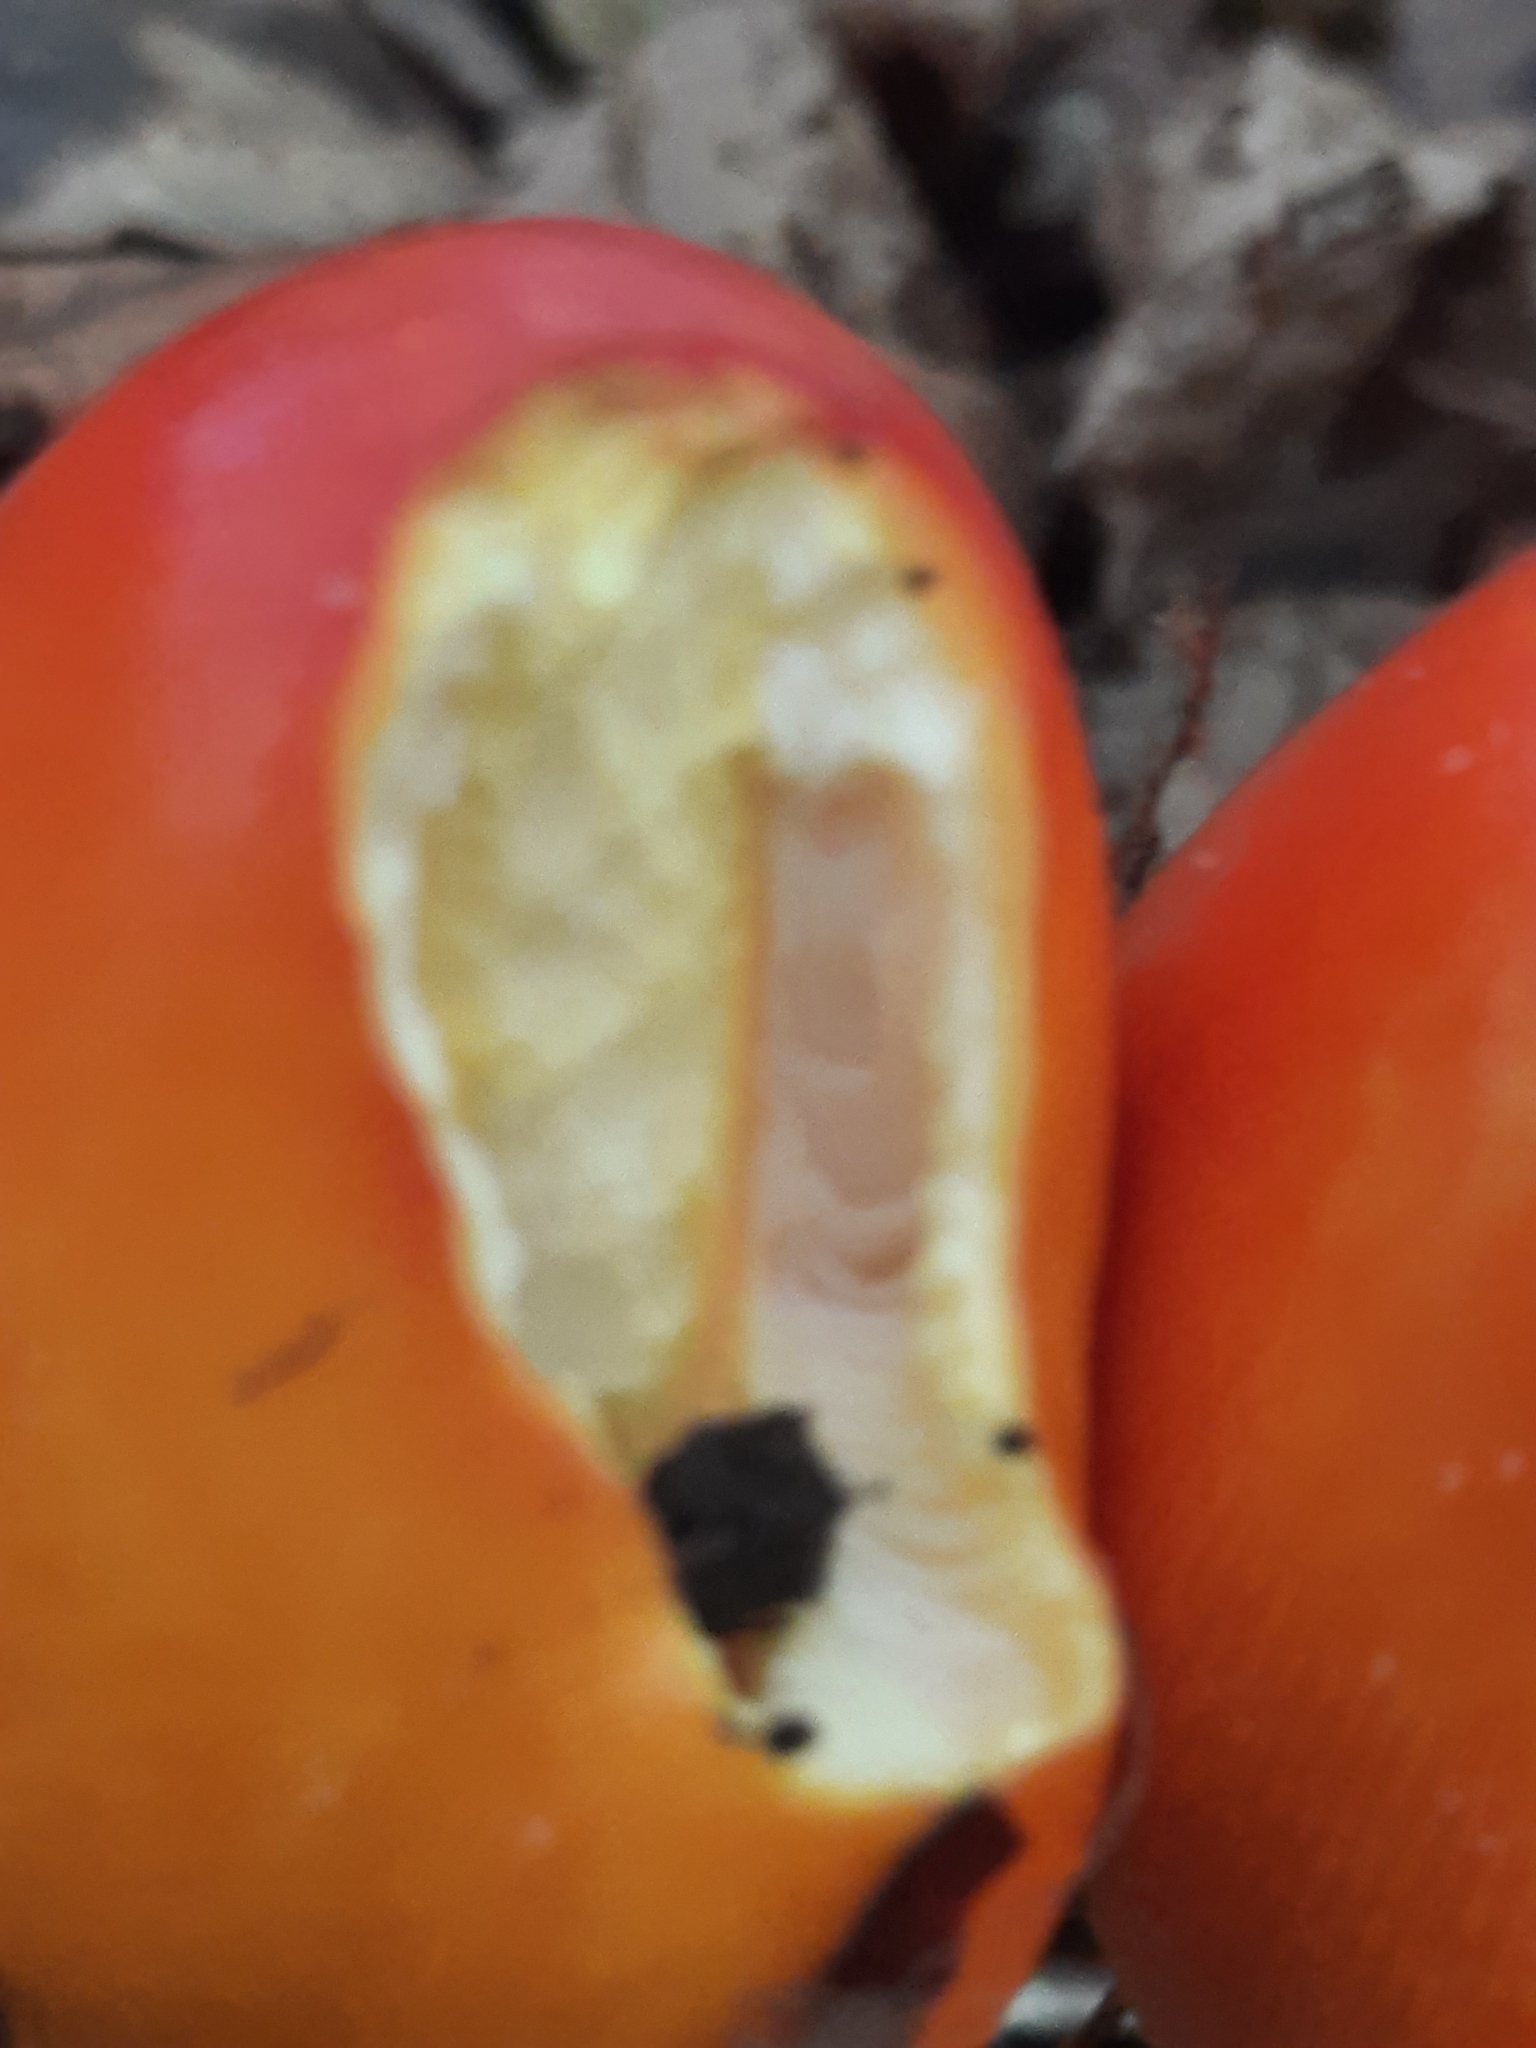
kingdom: Fungi
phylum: Basidiomycota
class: Agaricomycetes
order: Agaricales
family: Amanitaceae
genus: Amanita
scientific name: Amanita jacksonii
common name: Jackson's slender caesar
